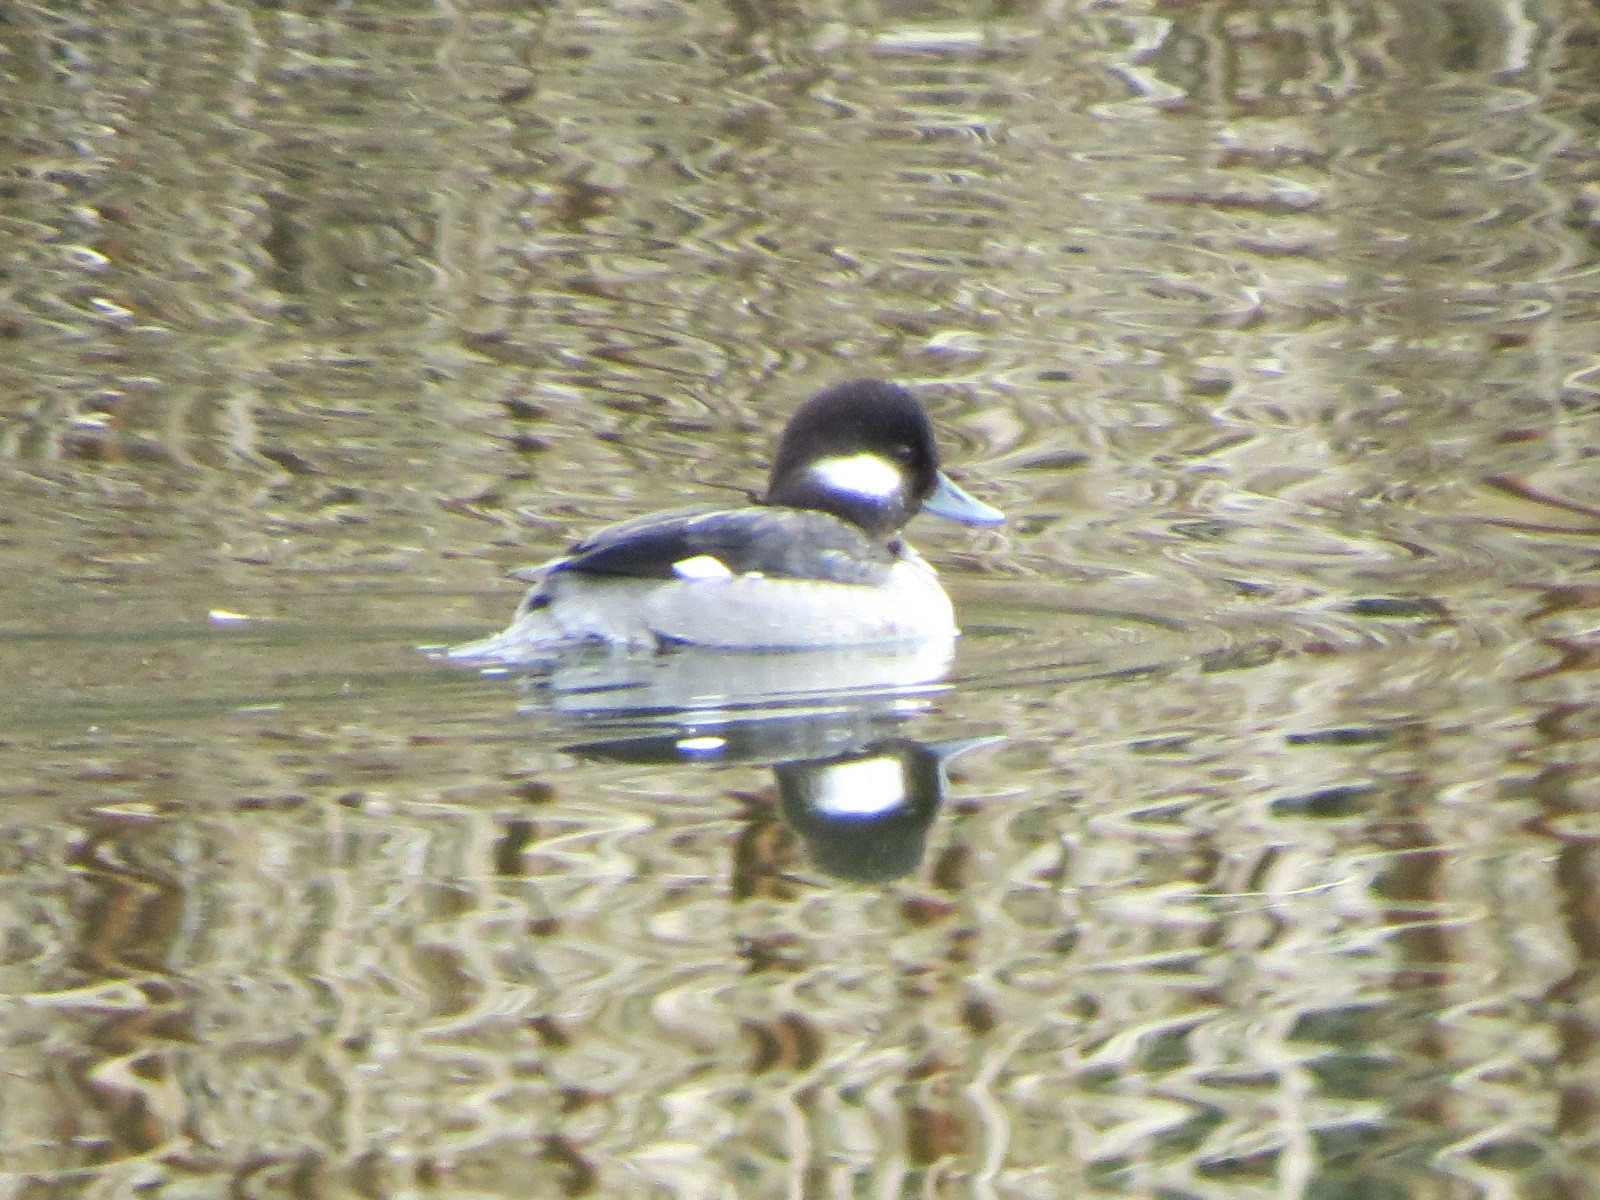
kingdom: Animalia
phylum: Chordata
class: Aves
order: Anseriformes
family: Anatidae
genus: Bucephala
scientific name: Bucephala albeola
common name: Bufflehead
